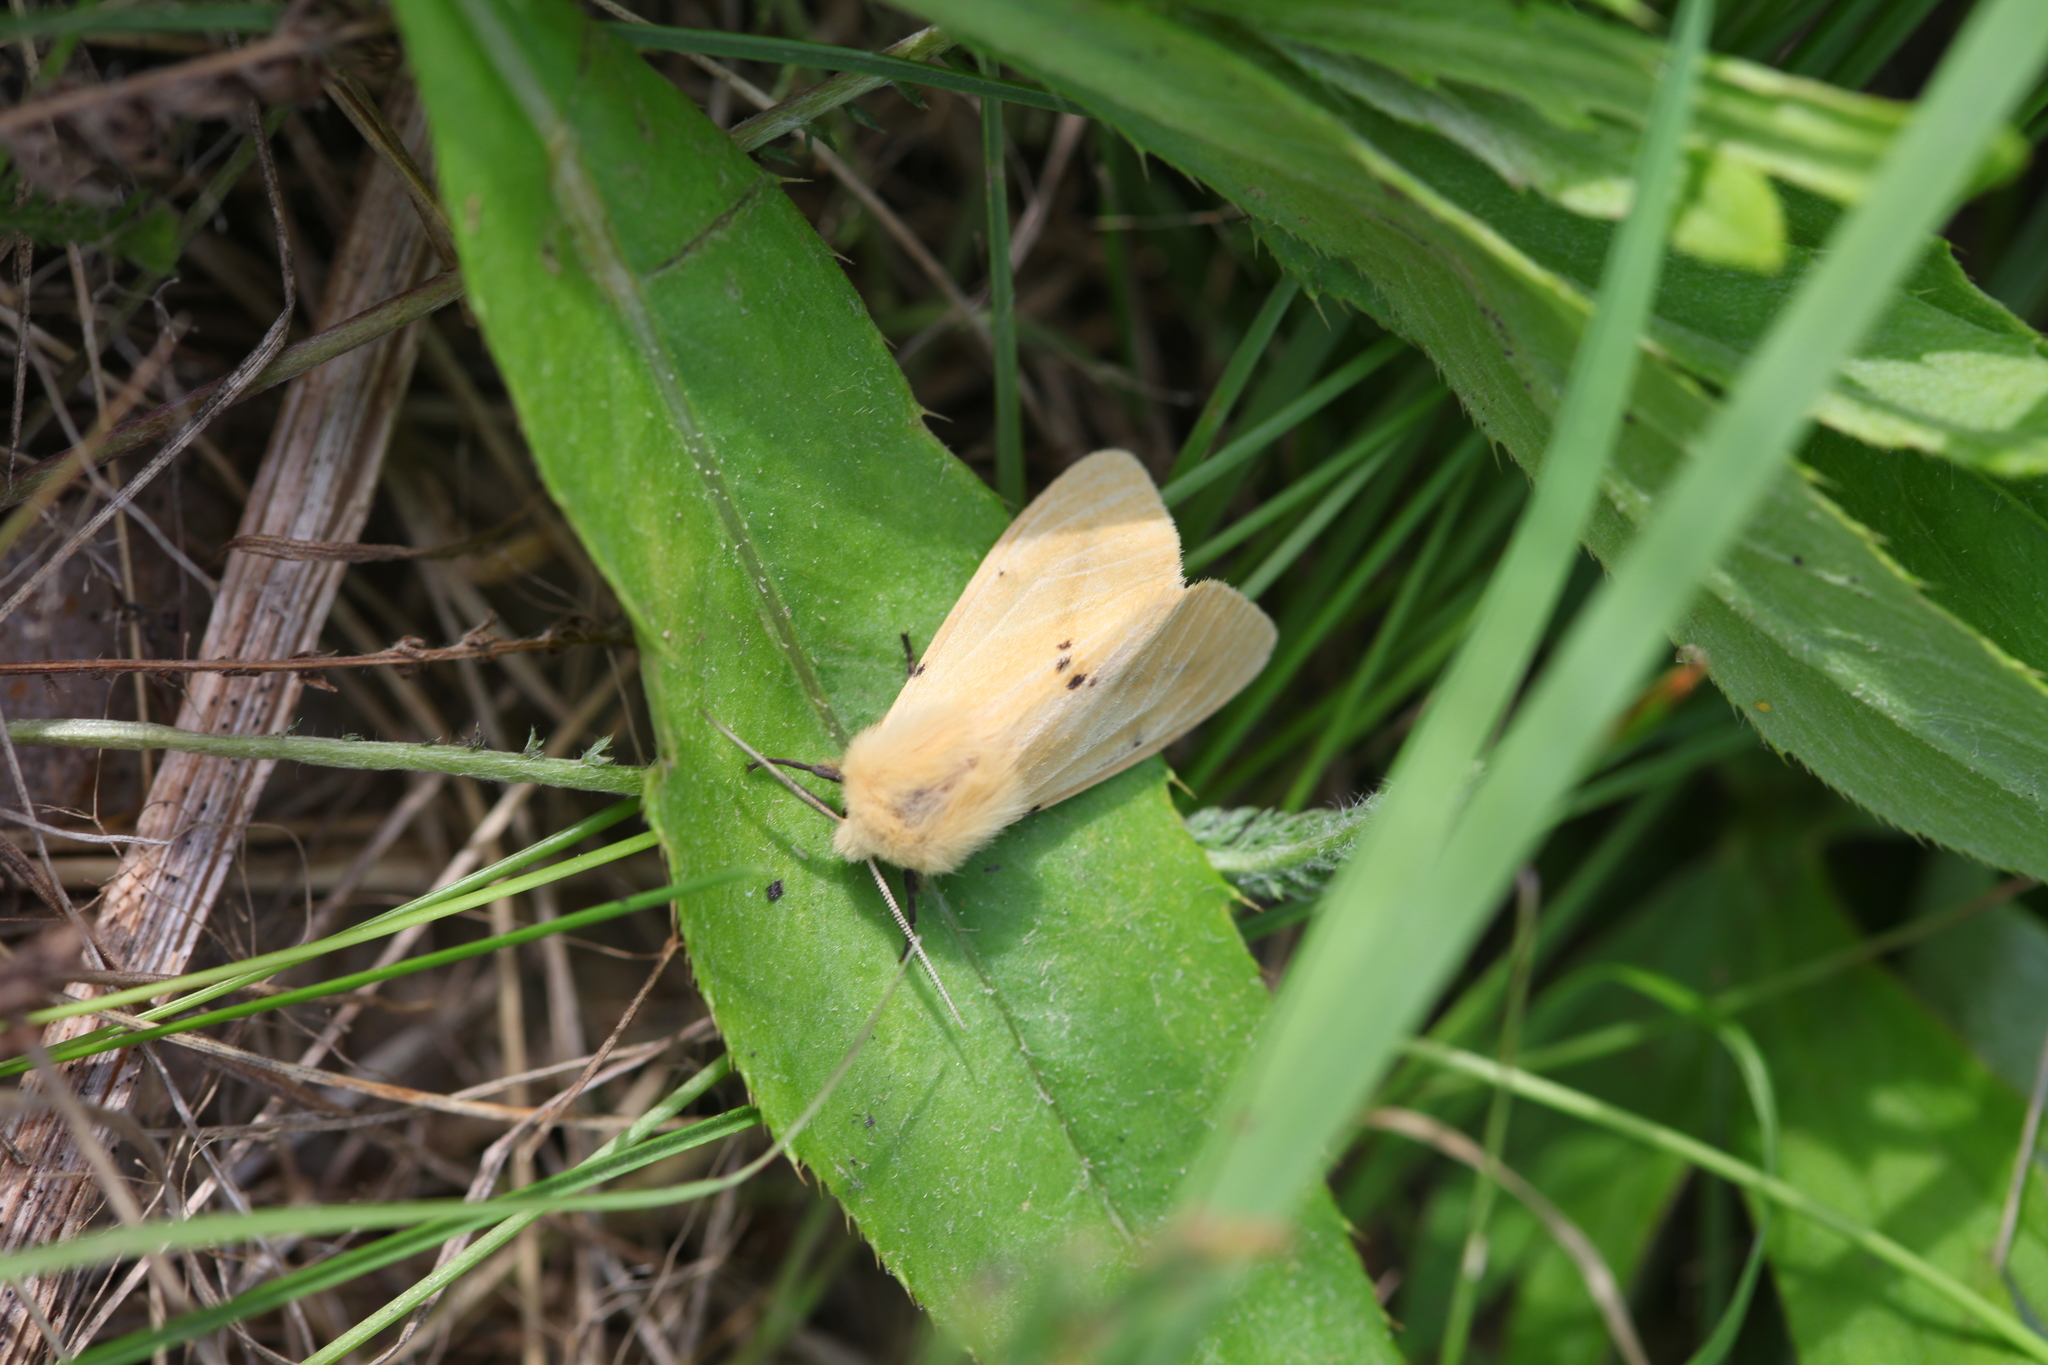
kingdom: Animalia
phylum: Arthropoda
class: Insecta
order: Lepidoptera
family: Erebidae
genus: Spilarctia
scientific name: Spilarctia lutea
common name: Buff ermine
